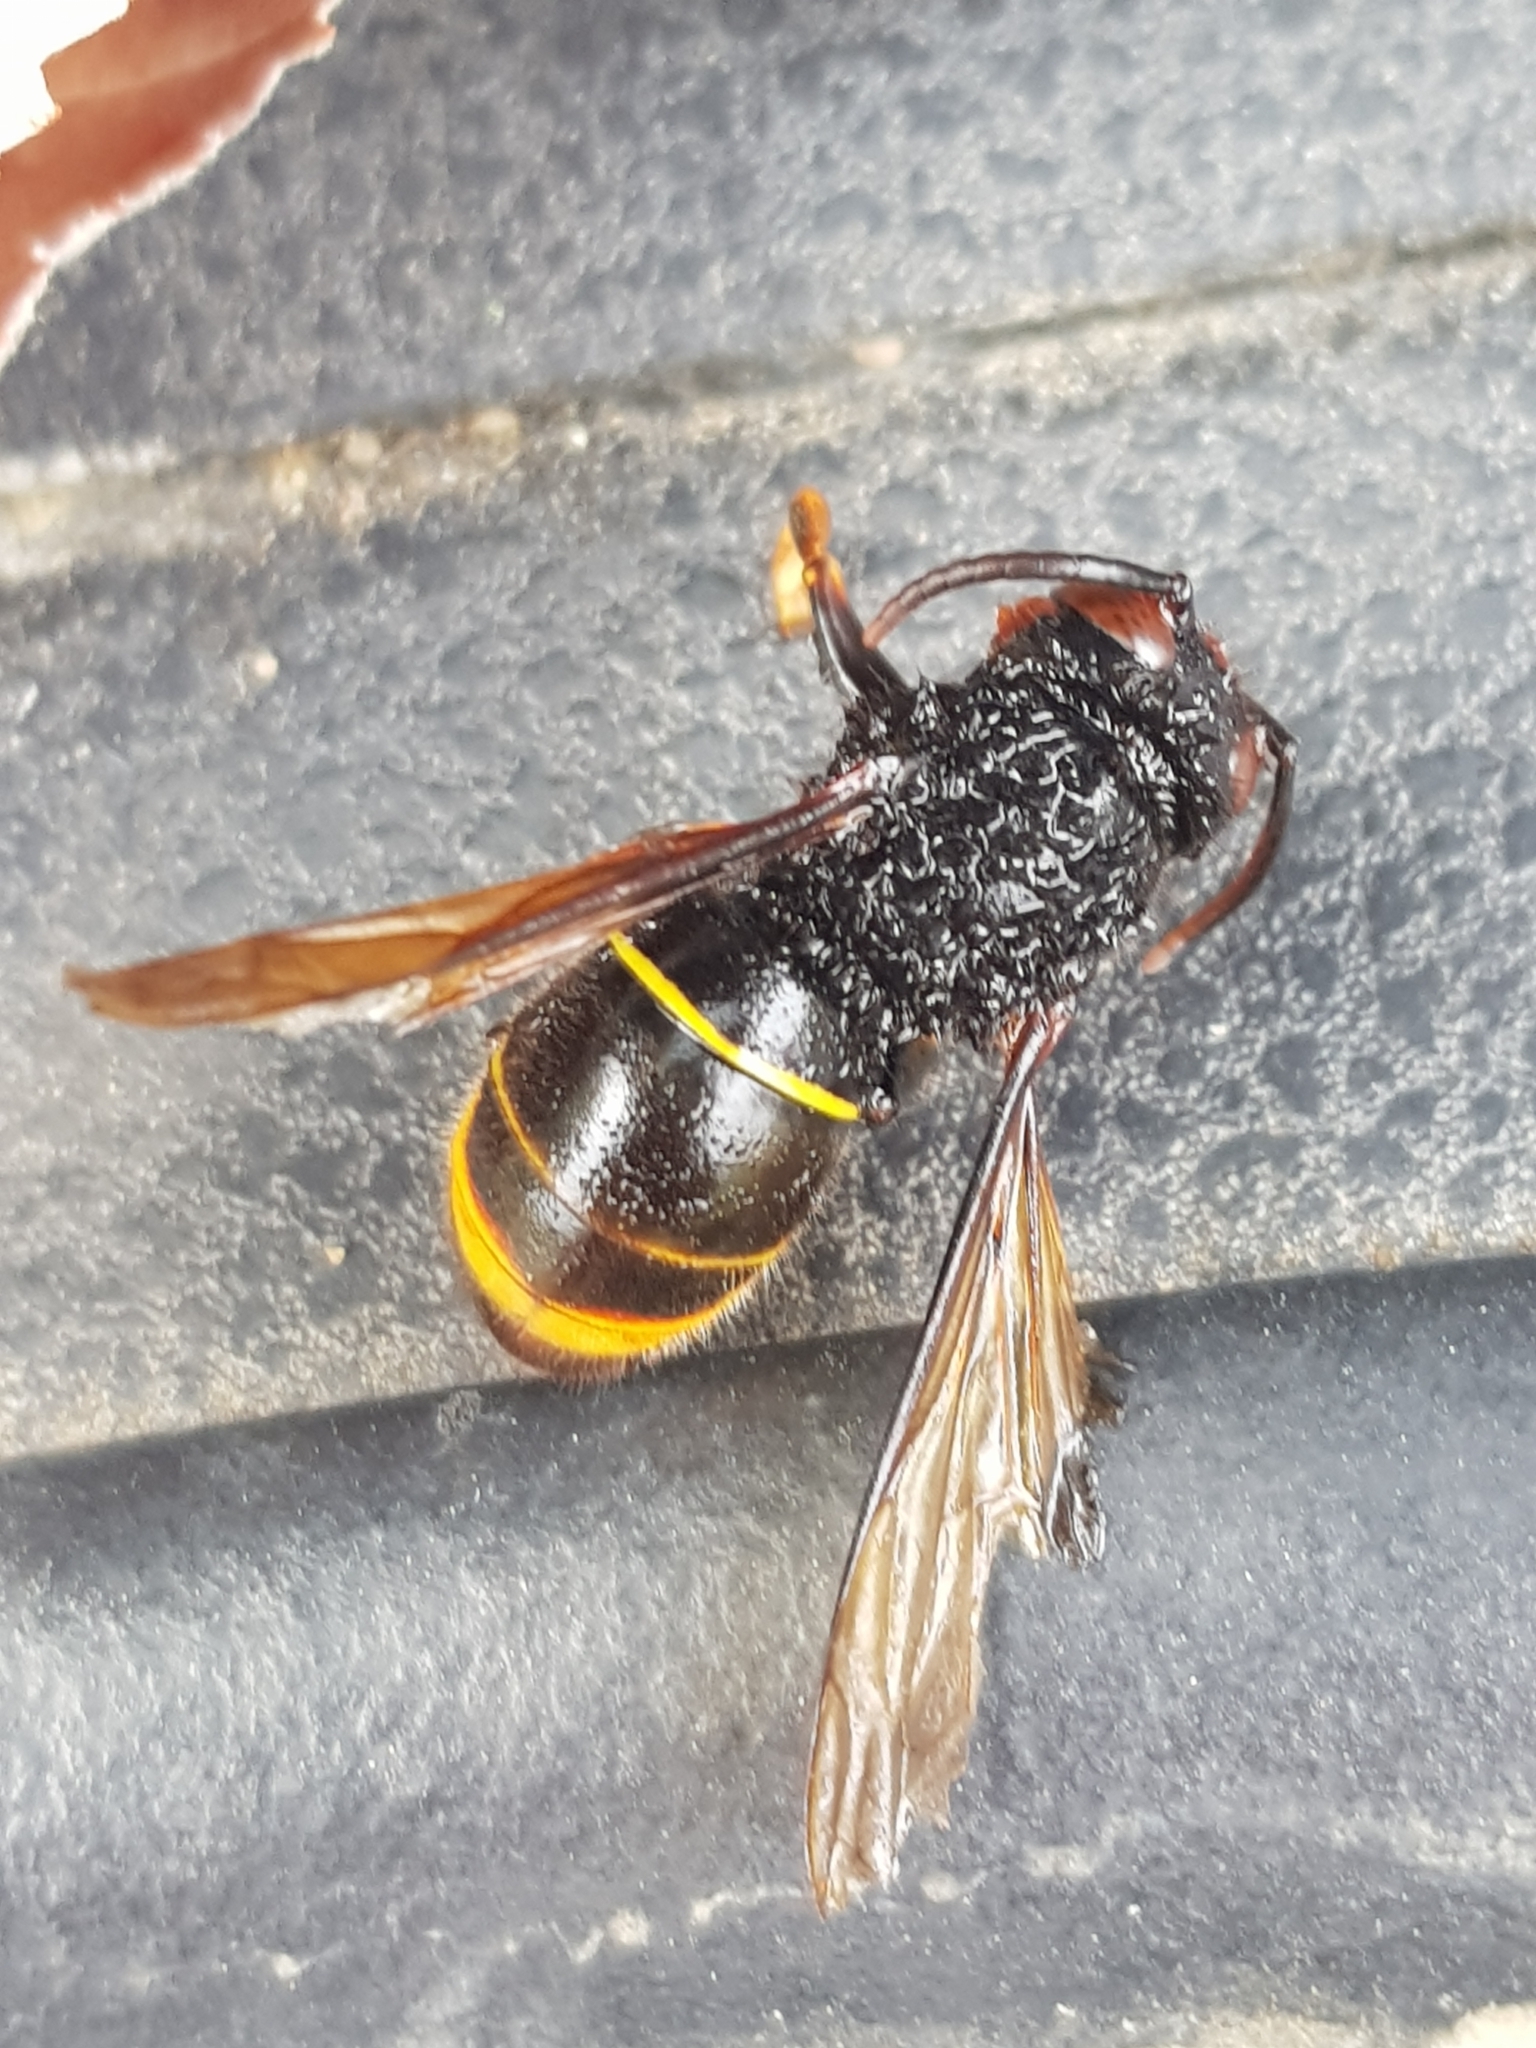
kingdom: Animalia
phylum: Arthropoda
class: Insecta
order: Hymenoptera
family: Vespidae
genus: Vespa
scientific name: Vespa velutina
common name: Asian hornet
